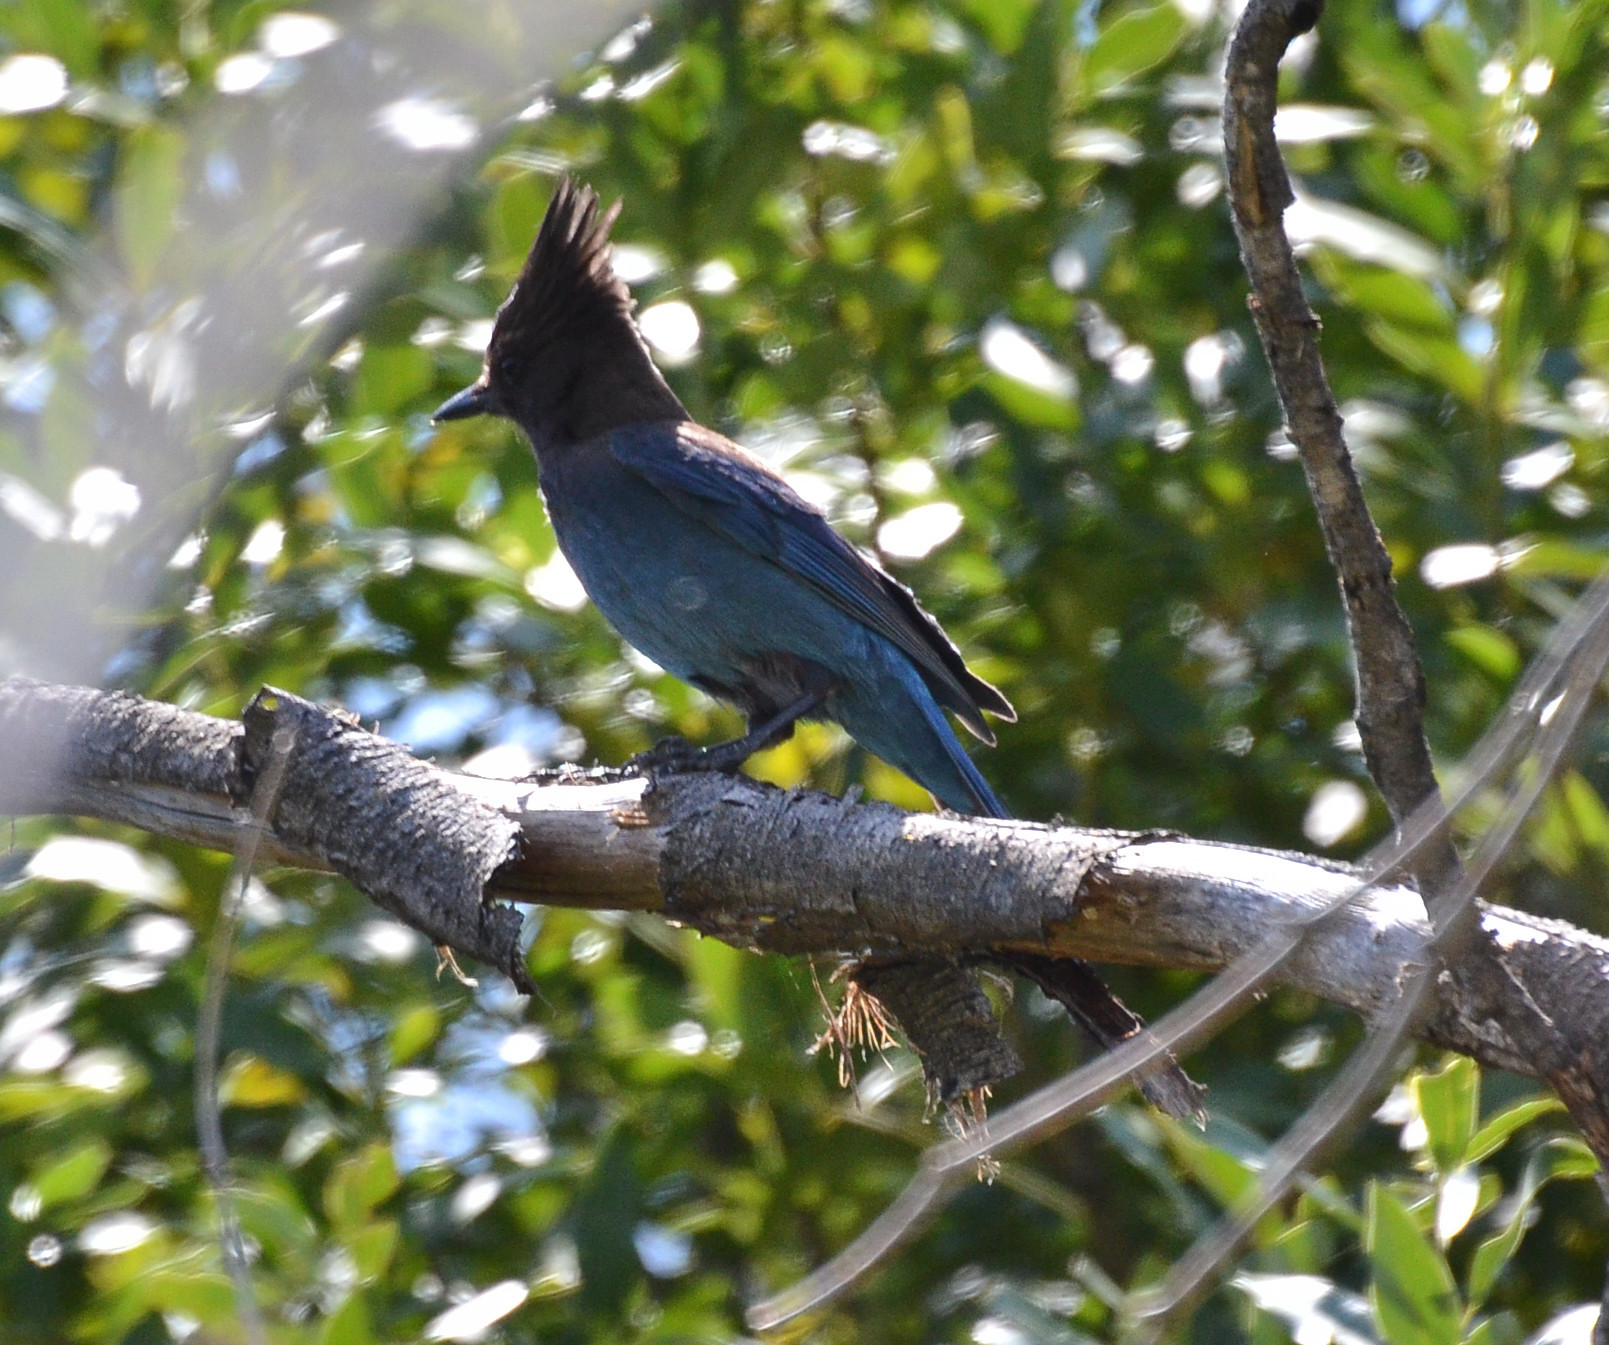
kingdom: Animalia
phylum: Chordata
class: Aves
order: Passeriformes
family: Corvidae
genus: Cyanocitta
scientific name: Cyanocitta stelleri
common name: Steller's jay
